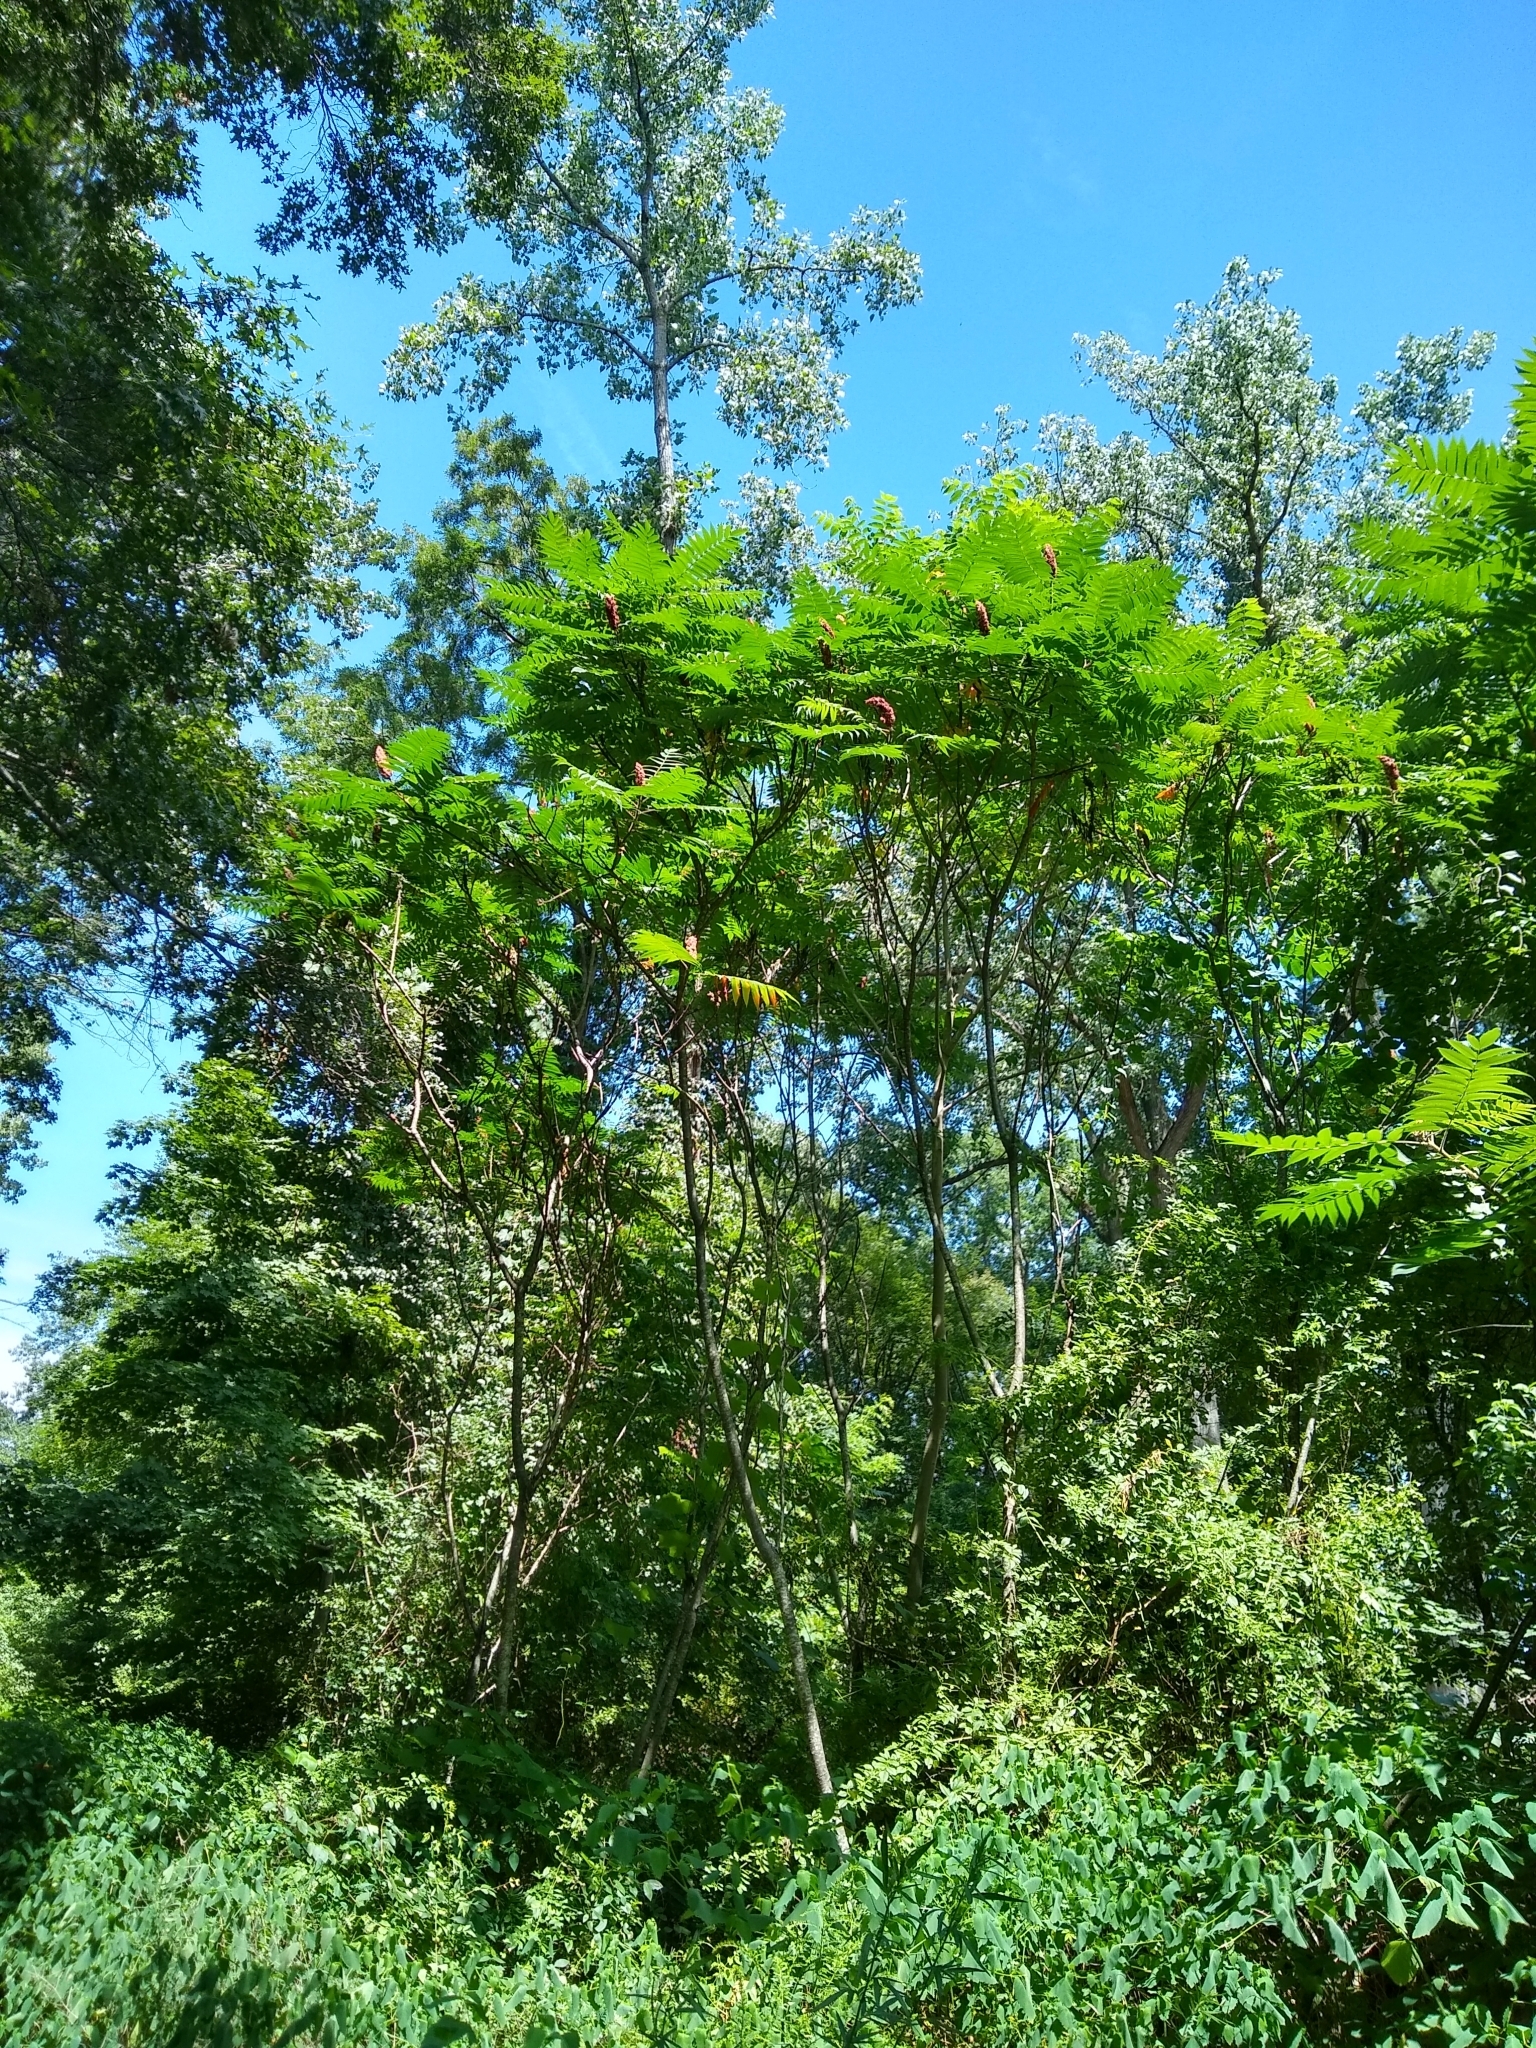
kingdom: Plantae
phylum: Tracheophyta
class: Magnoliopsida
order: Sapindales
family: Anacardiaceae
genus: Rhus
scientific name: Rhus typhina
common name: Staghorn sumac
